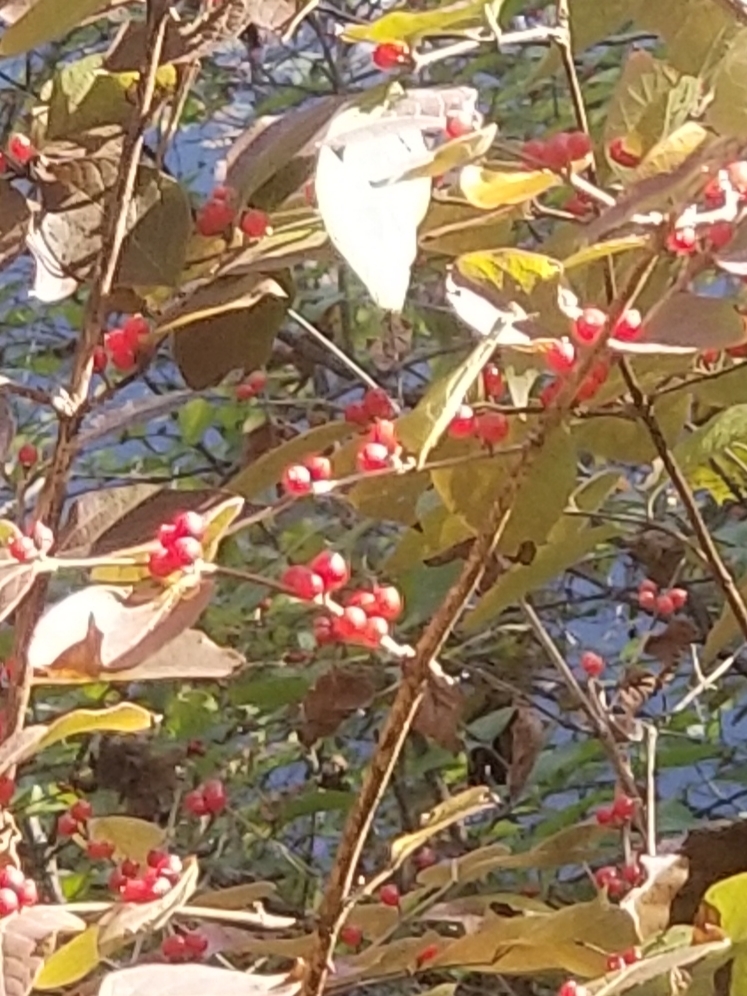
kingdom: Plantae
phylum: Tracheophyta
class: Magnoliopsida
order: Dipsacales
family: Caprifoliaceae
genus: Lonicera
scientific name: Lonicera maackii
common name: Amur honeysuckle
